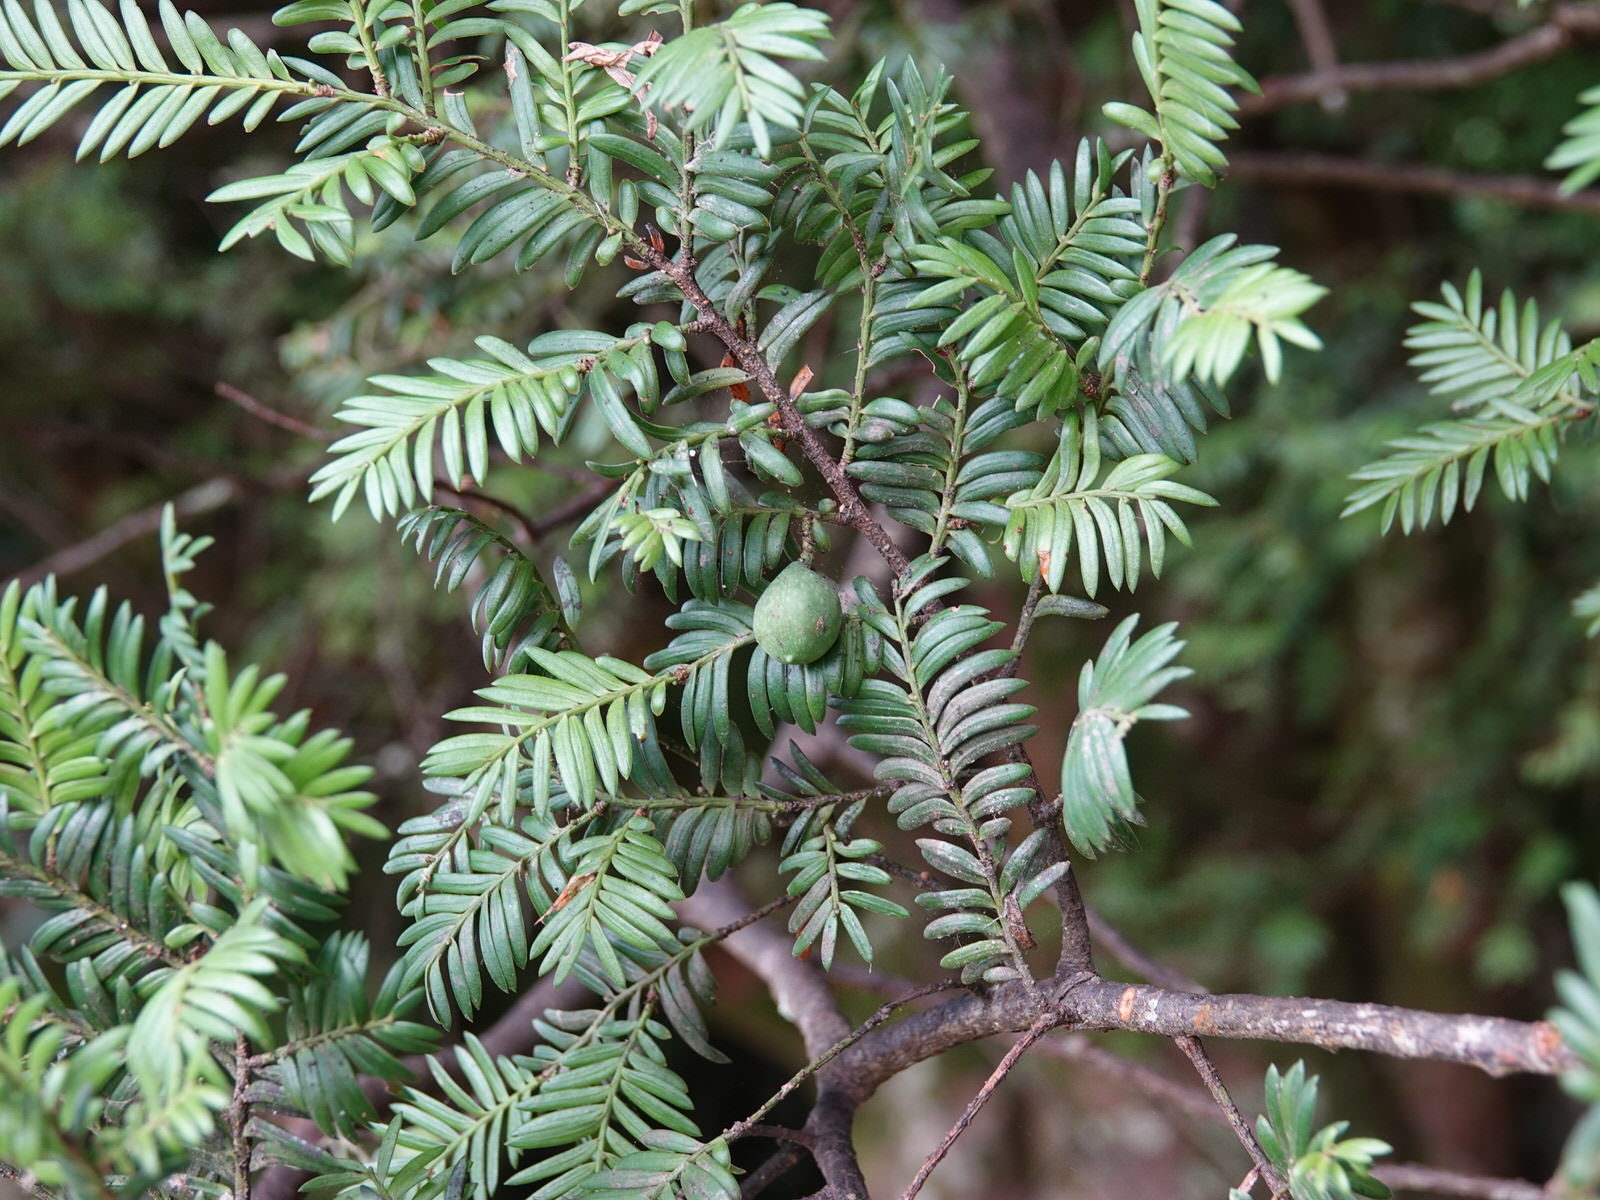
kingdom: Plantae
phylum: Tracheophyta
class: Pinopsida
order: Pinales
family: Podocarpaceae
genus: Prumnopitys
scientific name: Prumnopitys ferruginea
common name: Brown pine
